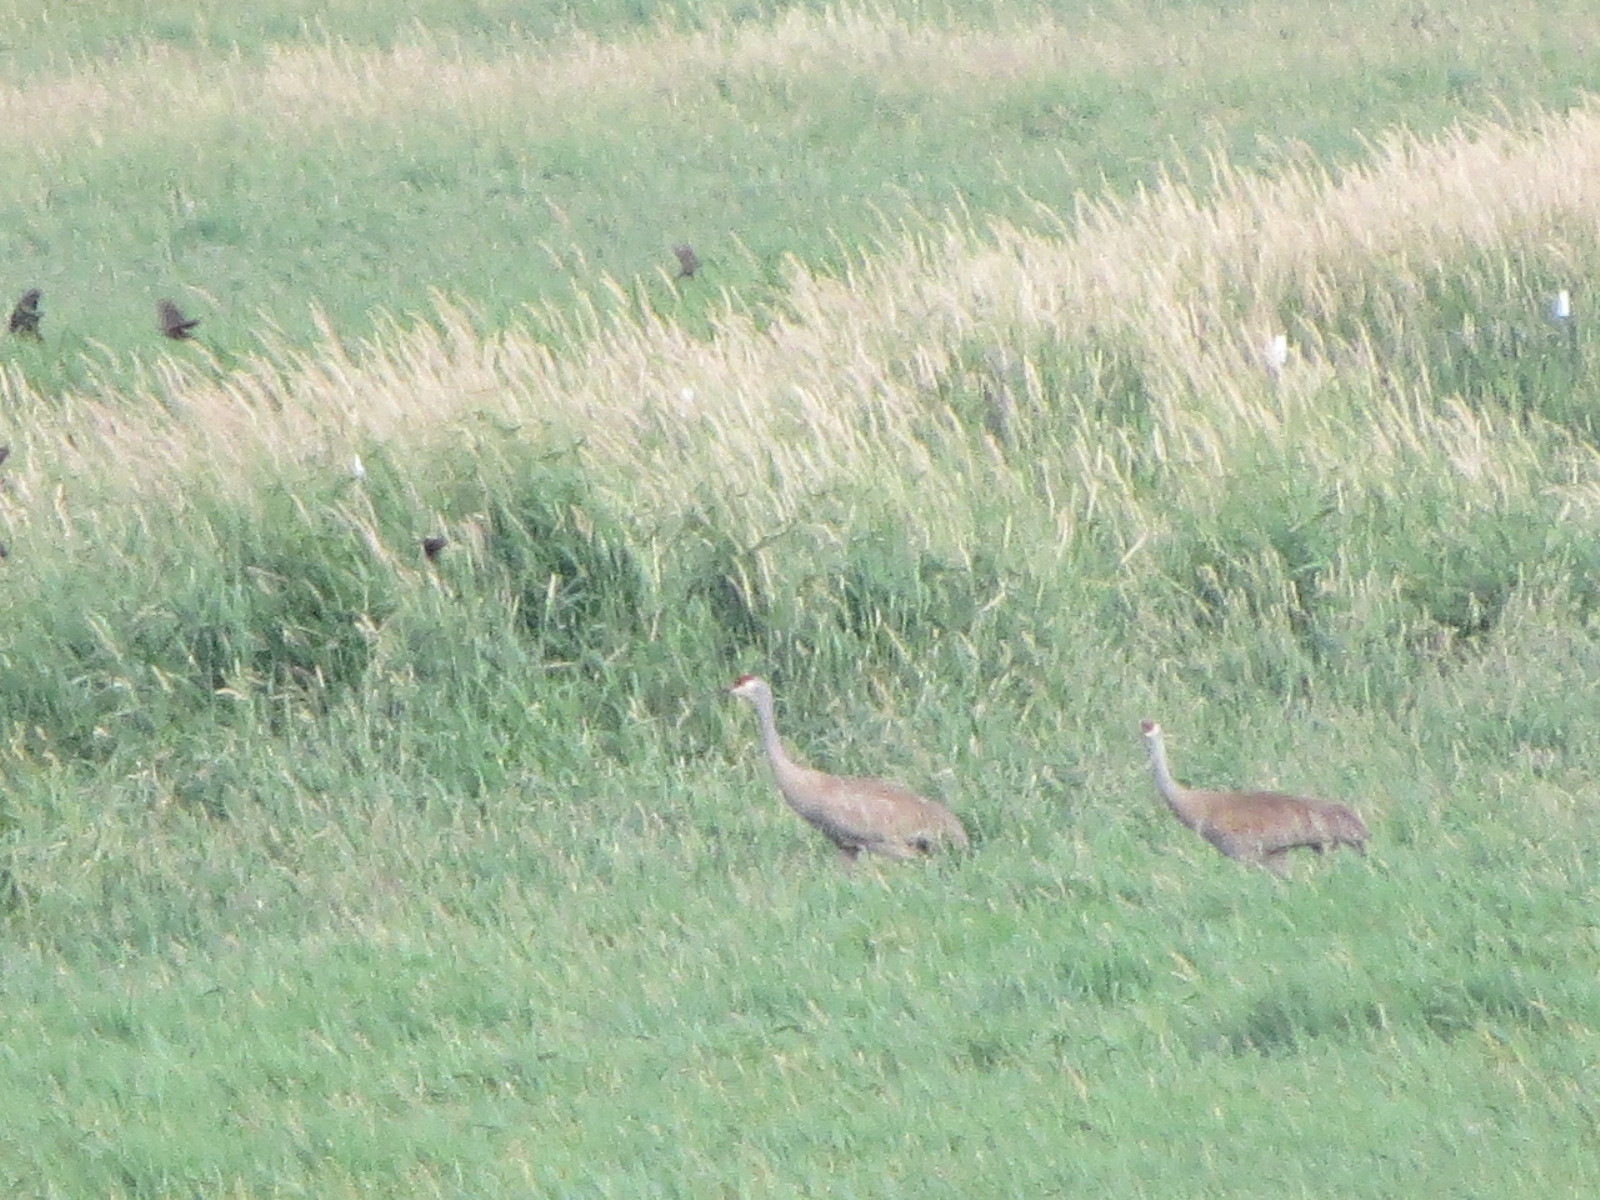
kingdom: Animalia
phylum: Chordata
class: Aves
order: Gruiformes
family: Gruidae
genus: Grus
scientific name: Grus canadensis
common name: Sandhill crane
